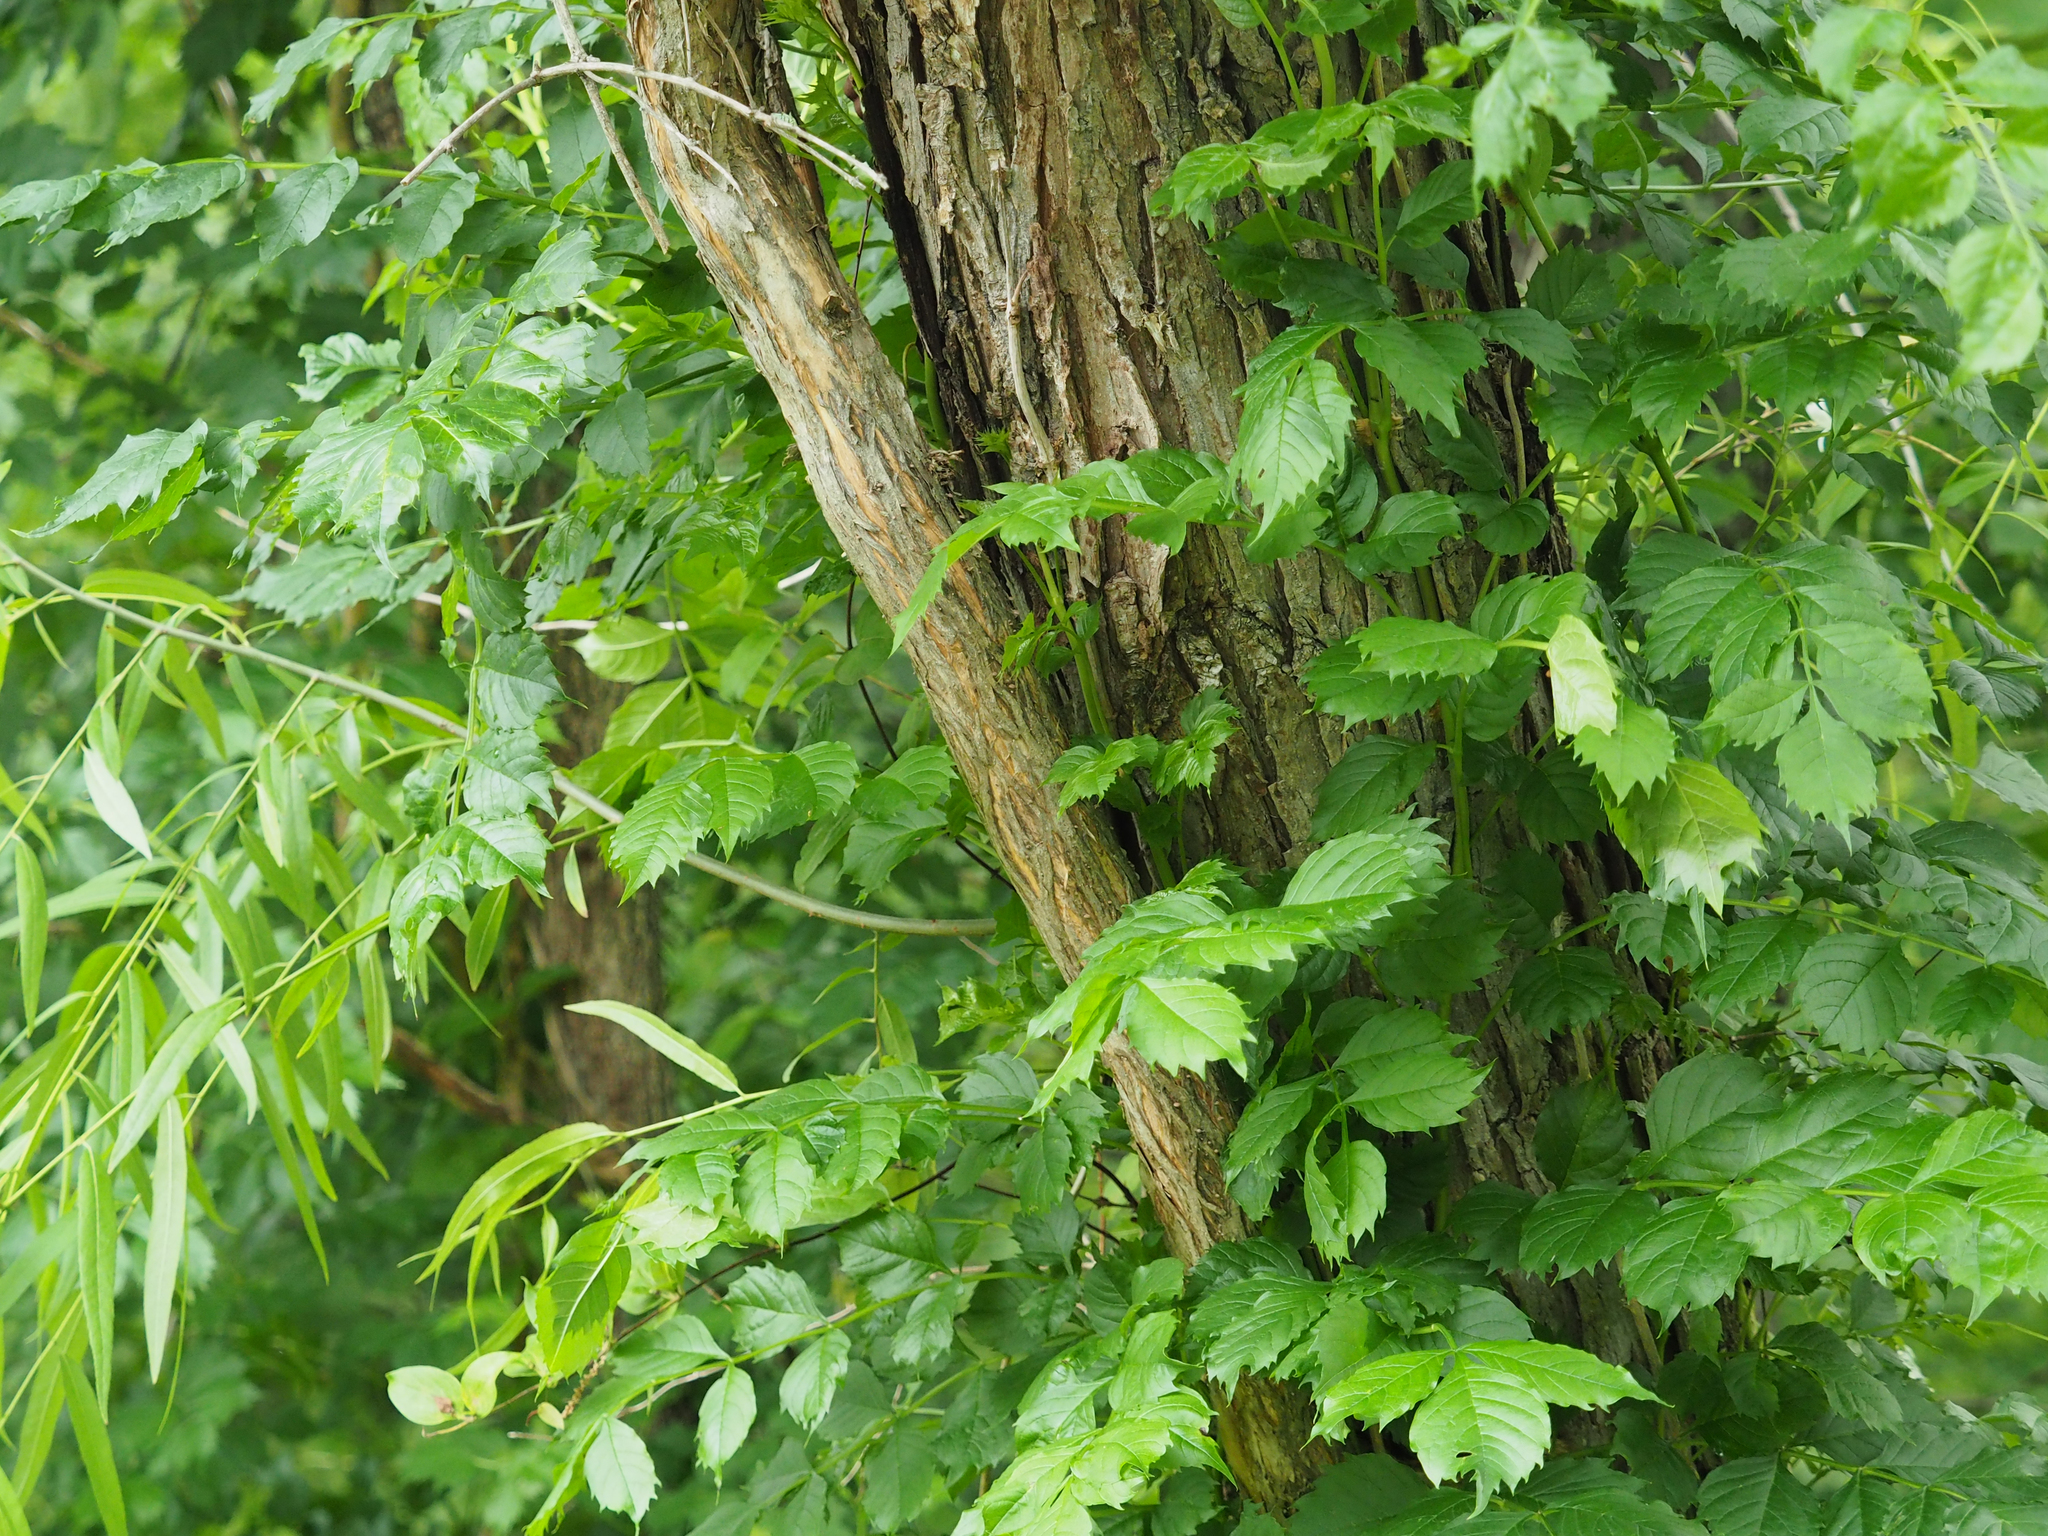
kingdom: Plantae
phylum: Tracheophyta
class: Magnoliopsida
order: Lamiales
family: Bignoniaceae
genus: Campsis
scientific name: Campsis radicans
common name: Trumpet-creeper
